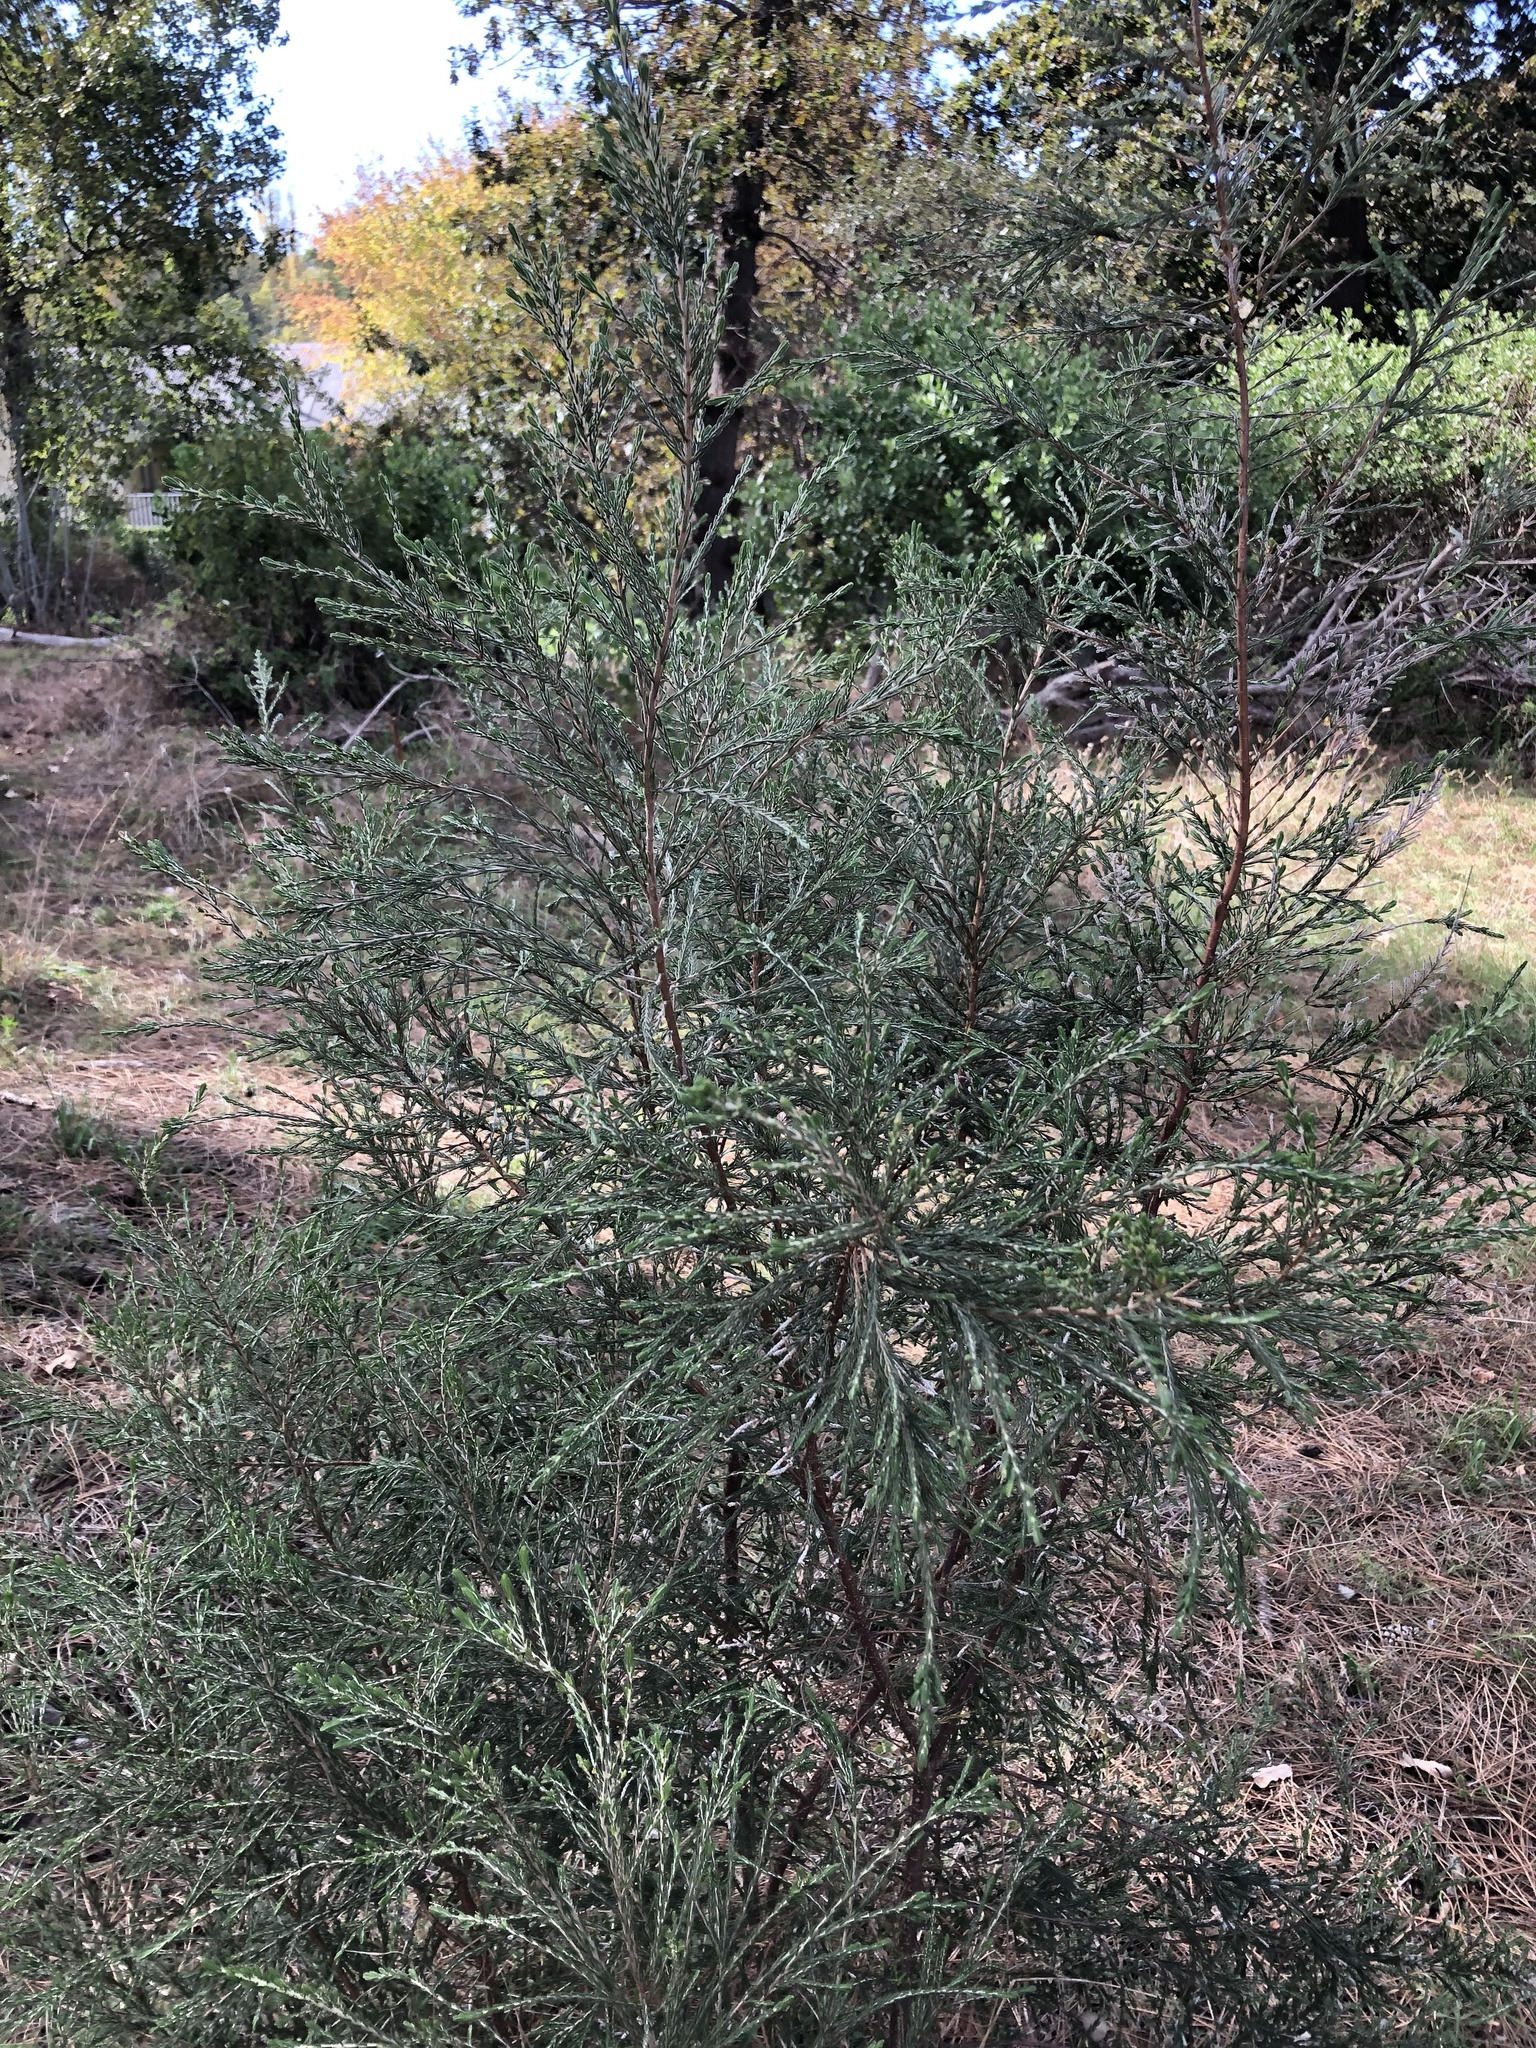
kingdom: Plantae
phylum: Tracheophyta
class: Magnoliopsida
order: Malvales
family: Thymelaeaceae
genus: Passerina
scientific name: Passerina corymbosa
